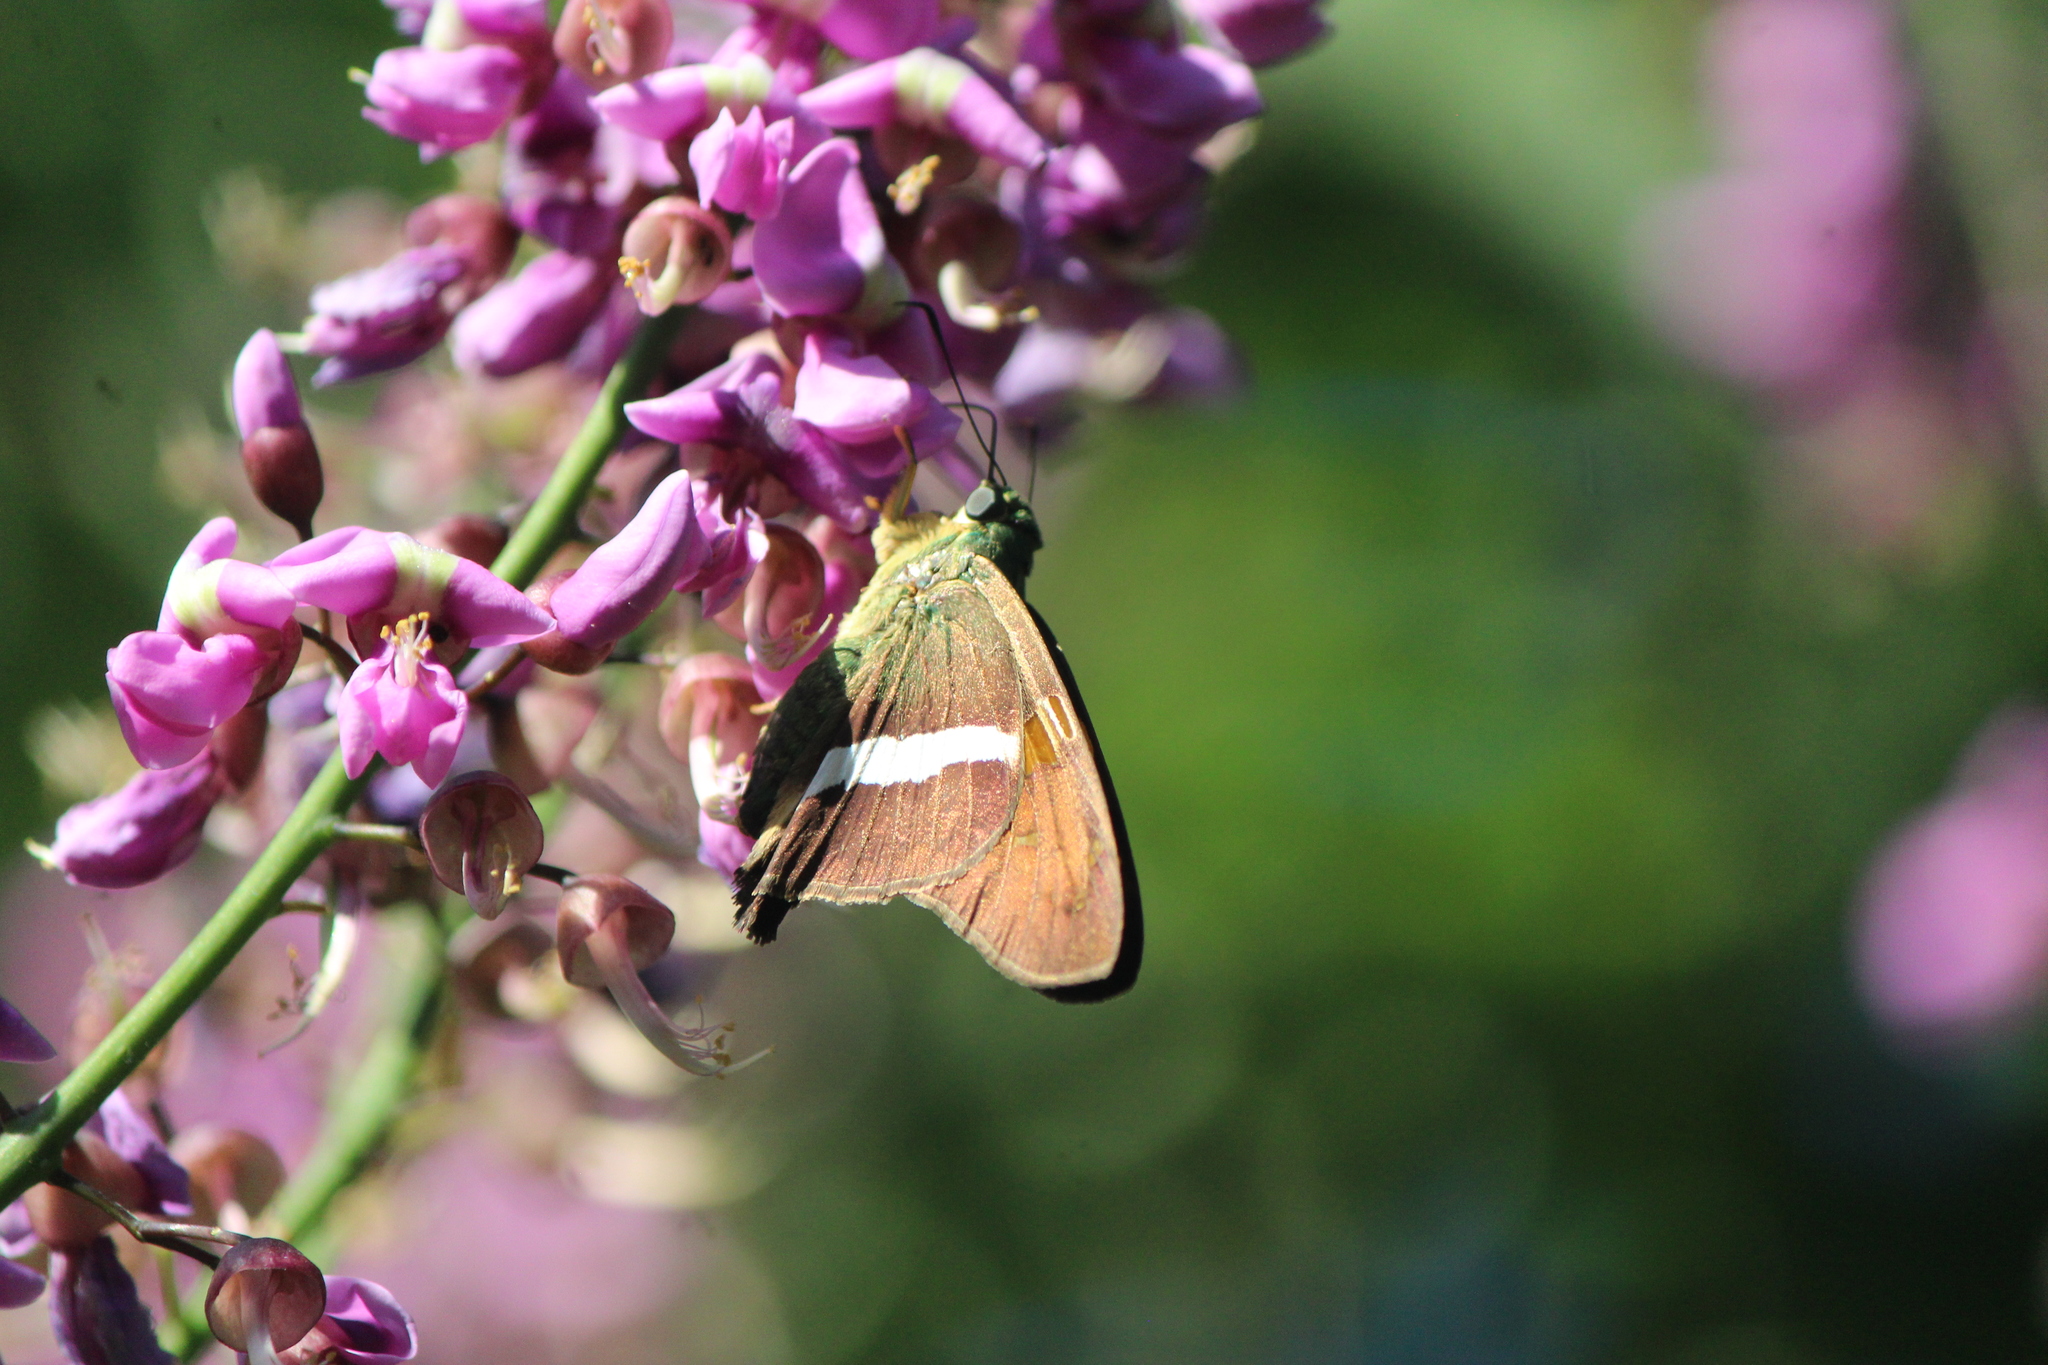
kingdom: Animalia
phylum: Arthropoda
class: Insecta
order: Lepidoptera
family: Hesperiidae
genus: Aguna
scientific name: Aguna asander
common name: Gold-spotted aguna
